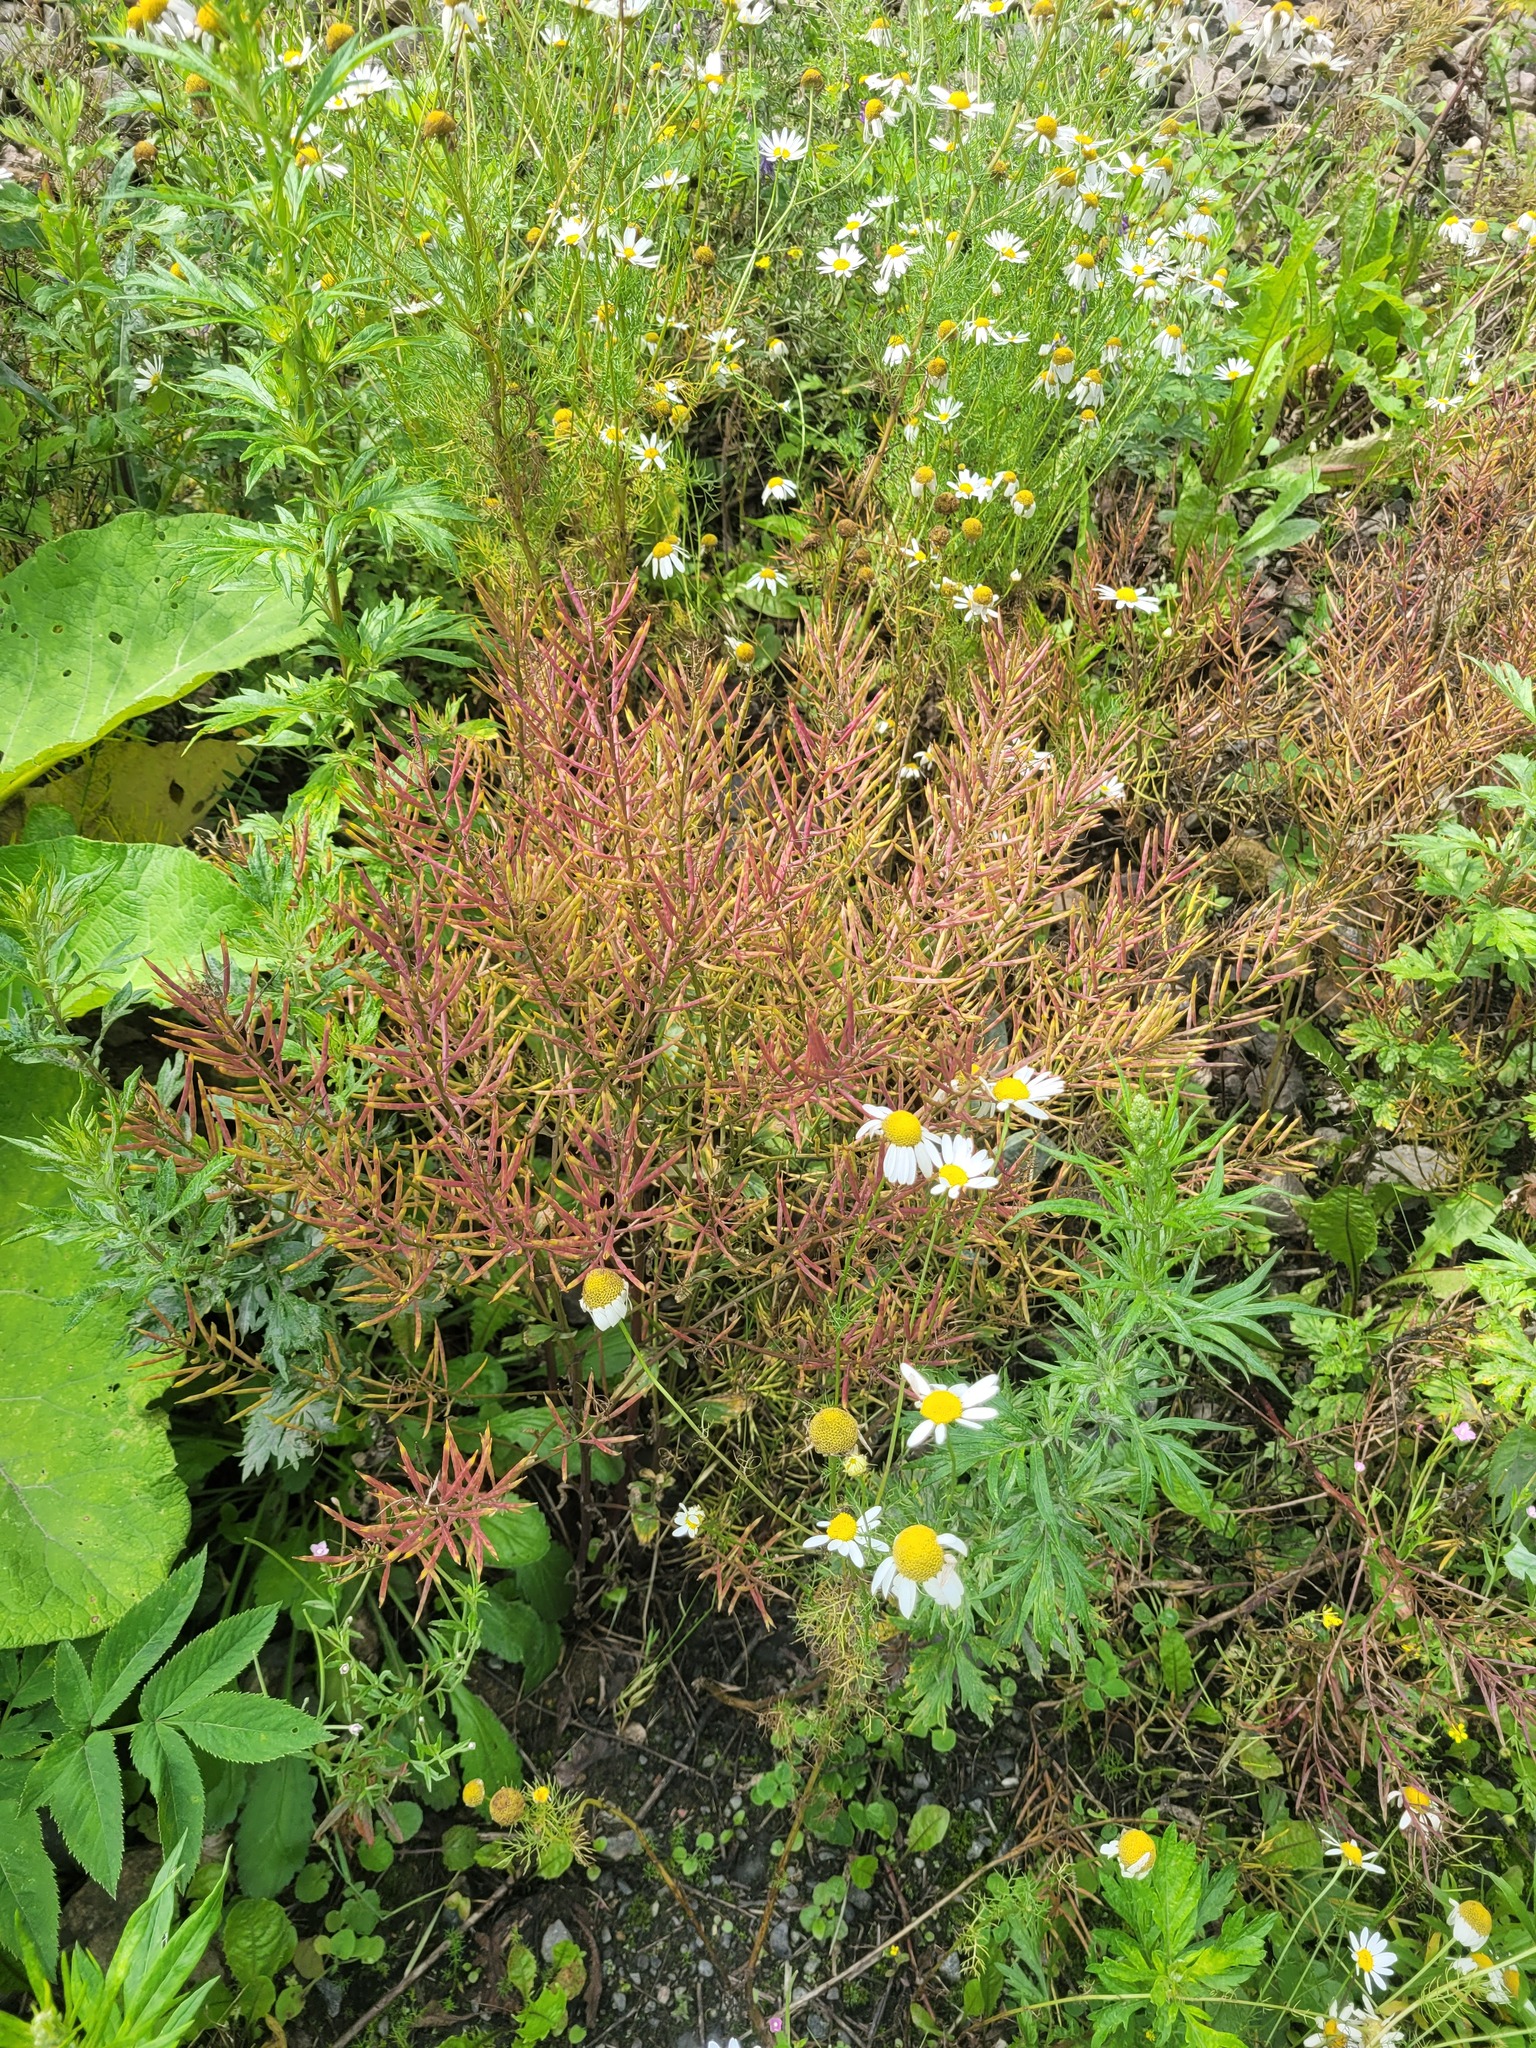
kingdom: Plantae
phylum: Tracheophyta
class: Magnoliopsida
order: Brassicales
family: Brassicaceae
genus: Barbarea
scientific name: Barbarea vulgaris
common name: Cressy-greens
